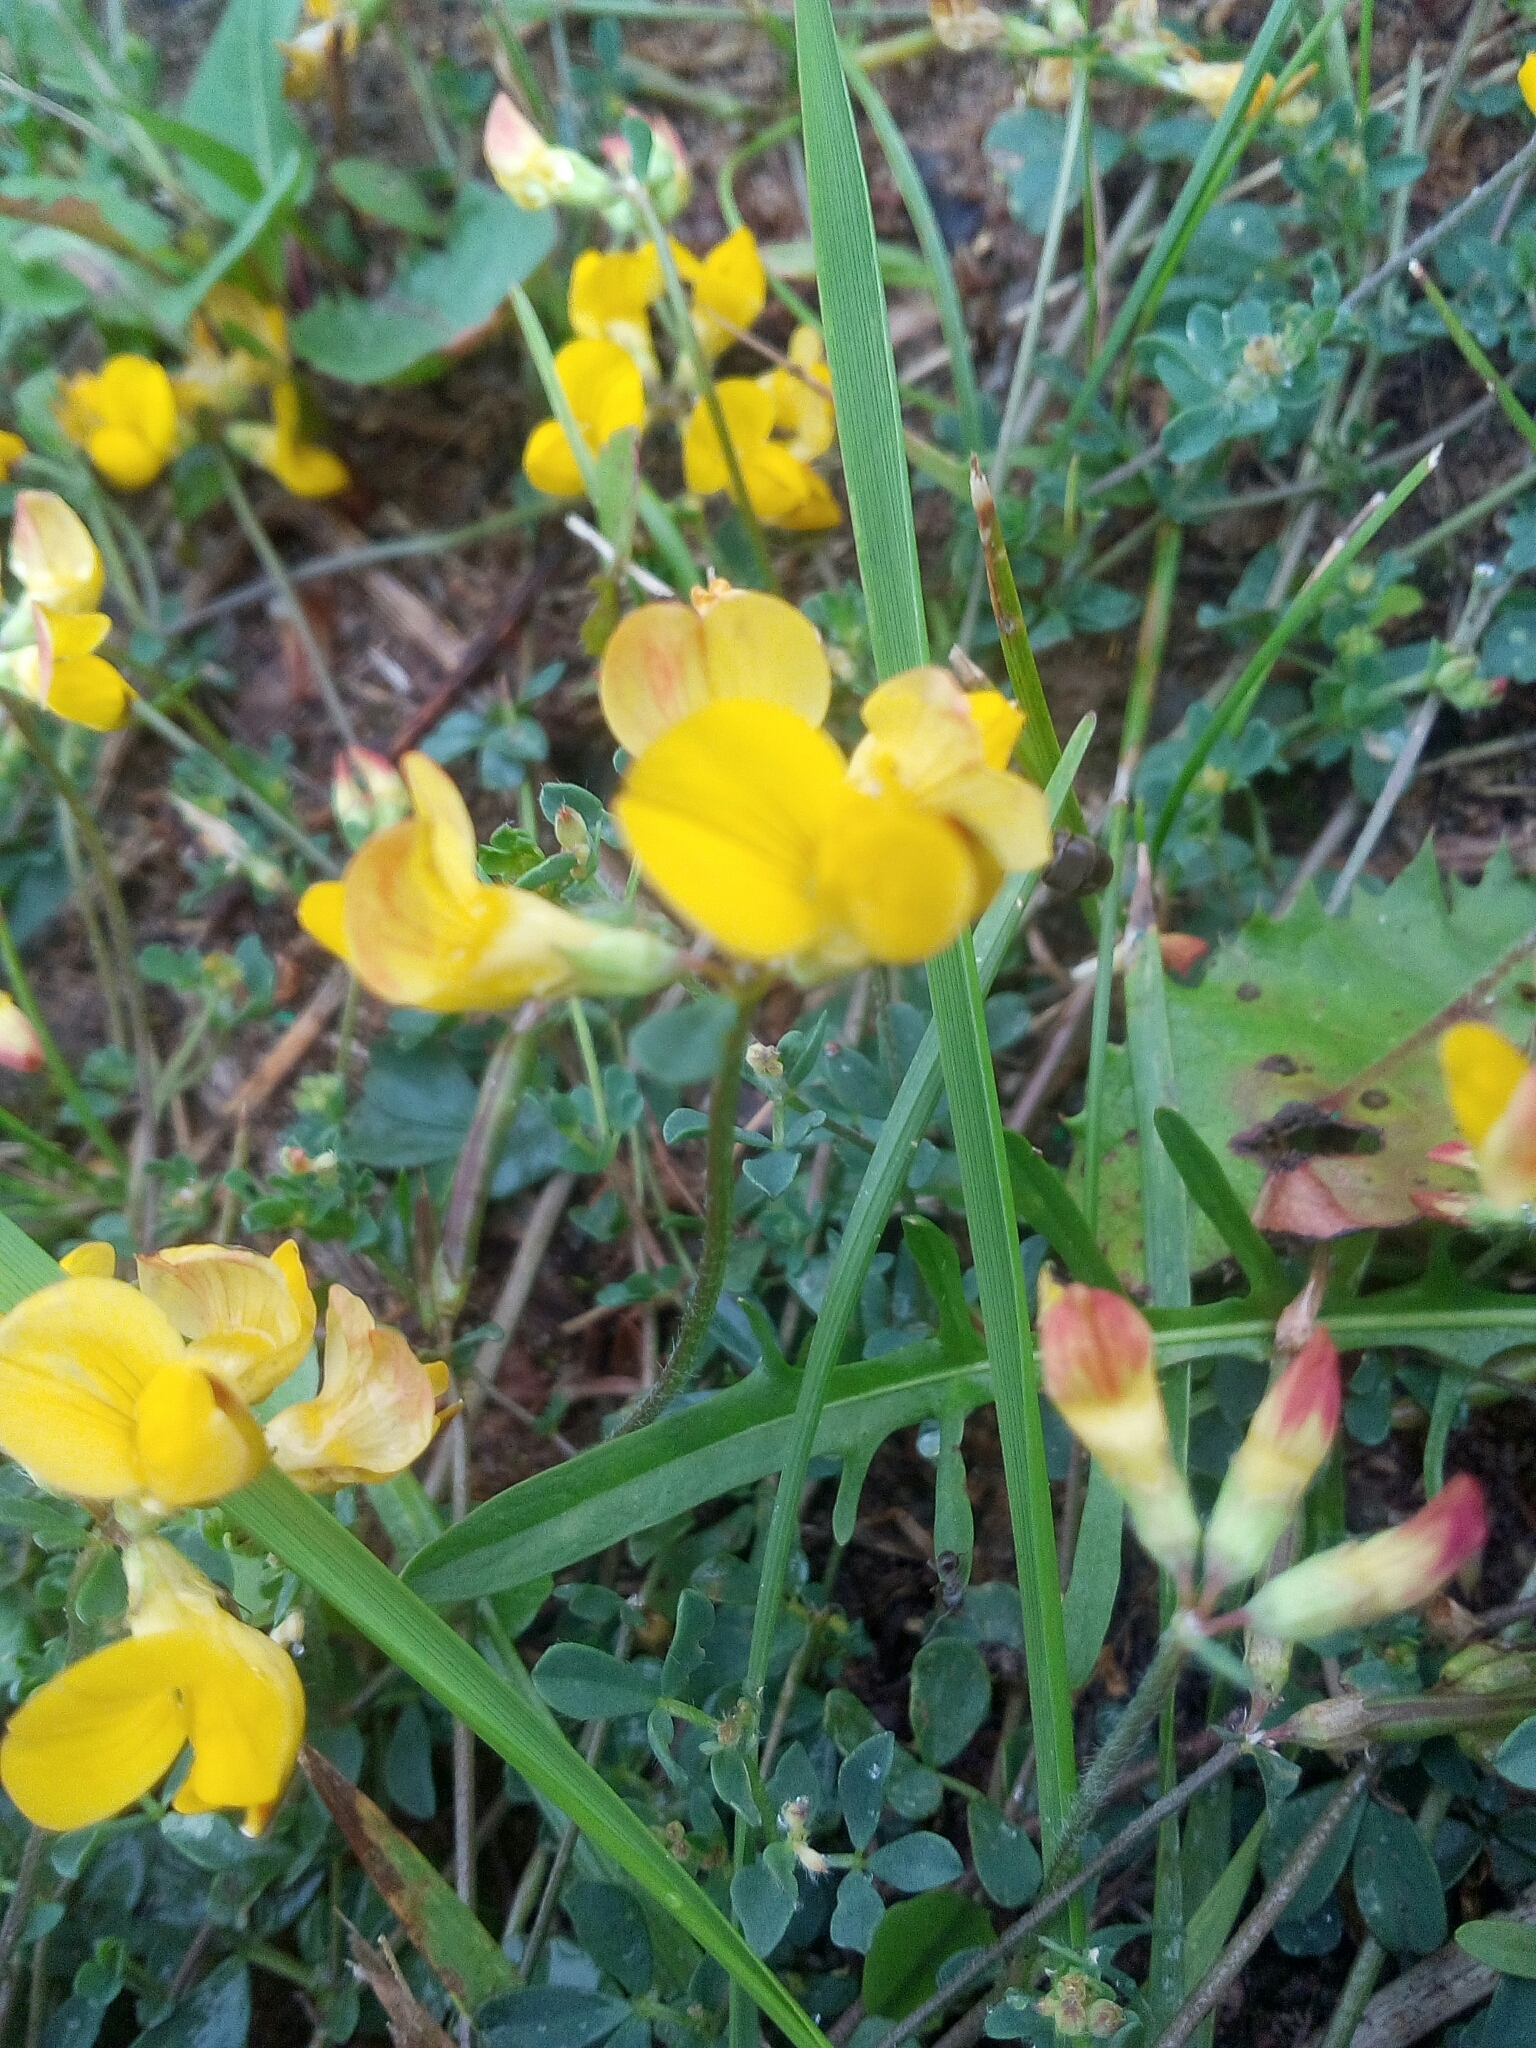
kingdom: Plantae
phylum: Tracheophyta
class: Magnoliopsida
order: Fabales
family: Fabaceae
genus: Lotus
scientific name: Lotus corniculatus
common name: Common bird's-foot-trefoil
